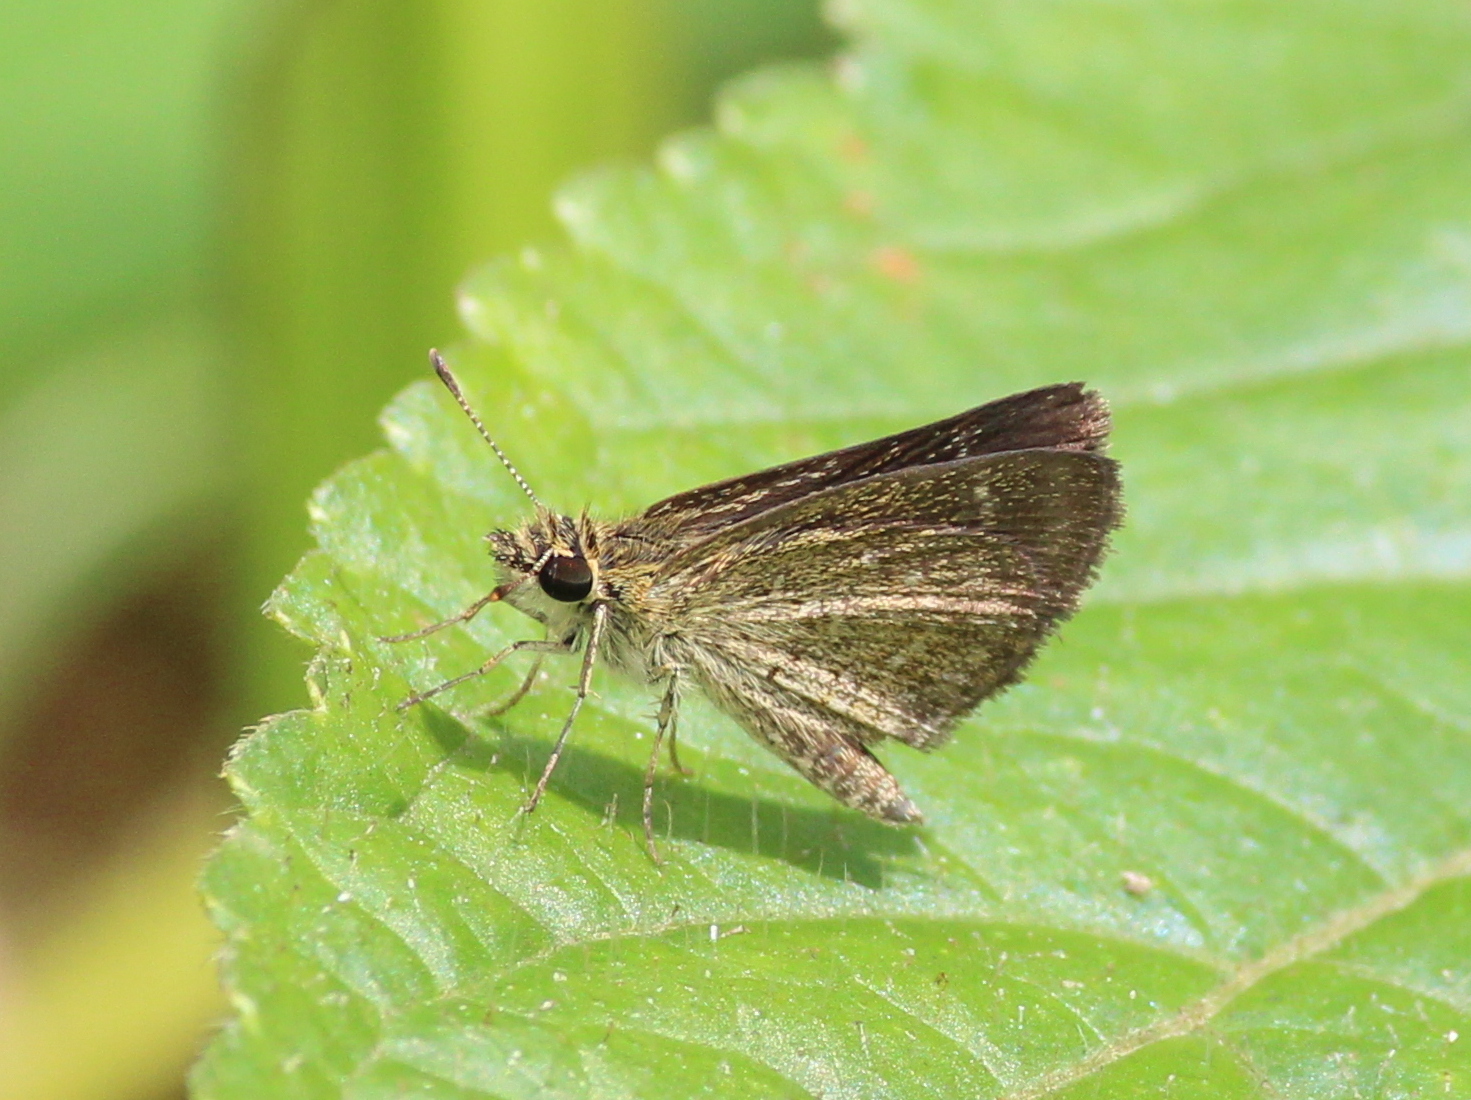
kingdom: Animalia
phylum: Arthropoda
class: Insecta
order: Lepidoptera
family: Hesperiidae
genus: Aeromachus
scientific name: Aeromachus pygmaeus
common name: Pygmy scrub hopper
